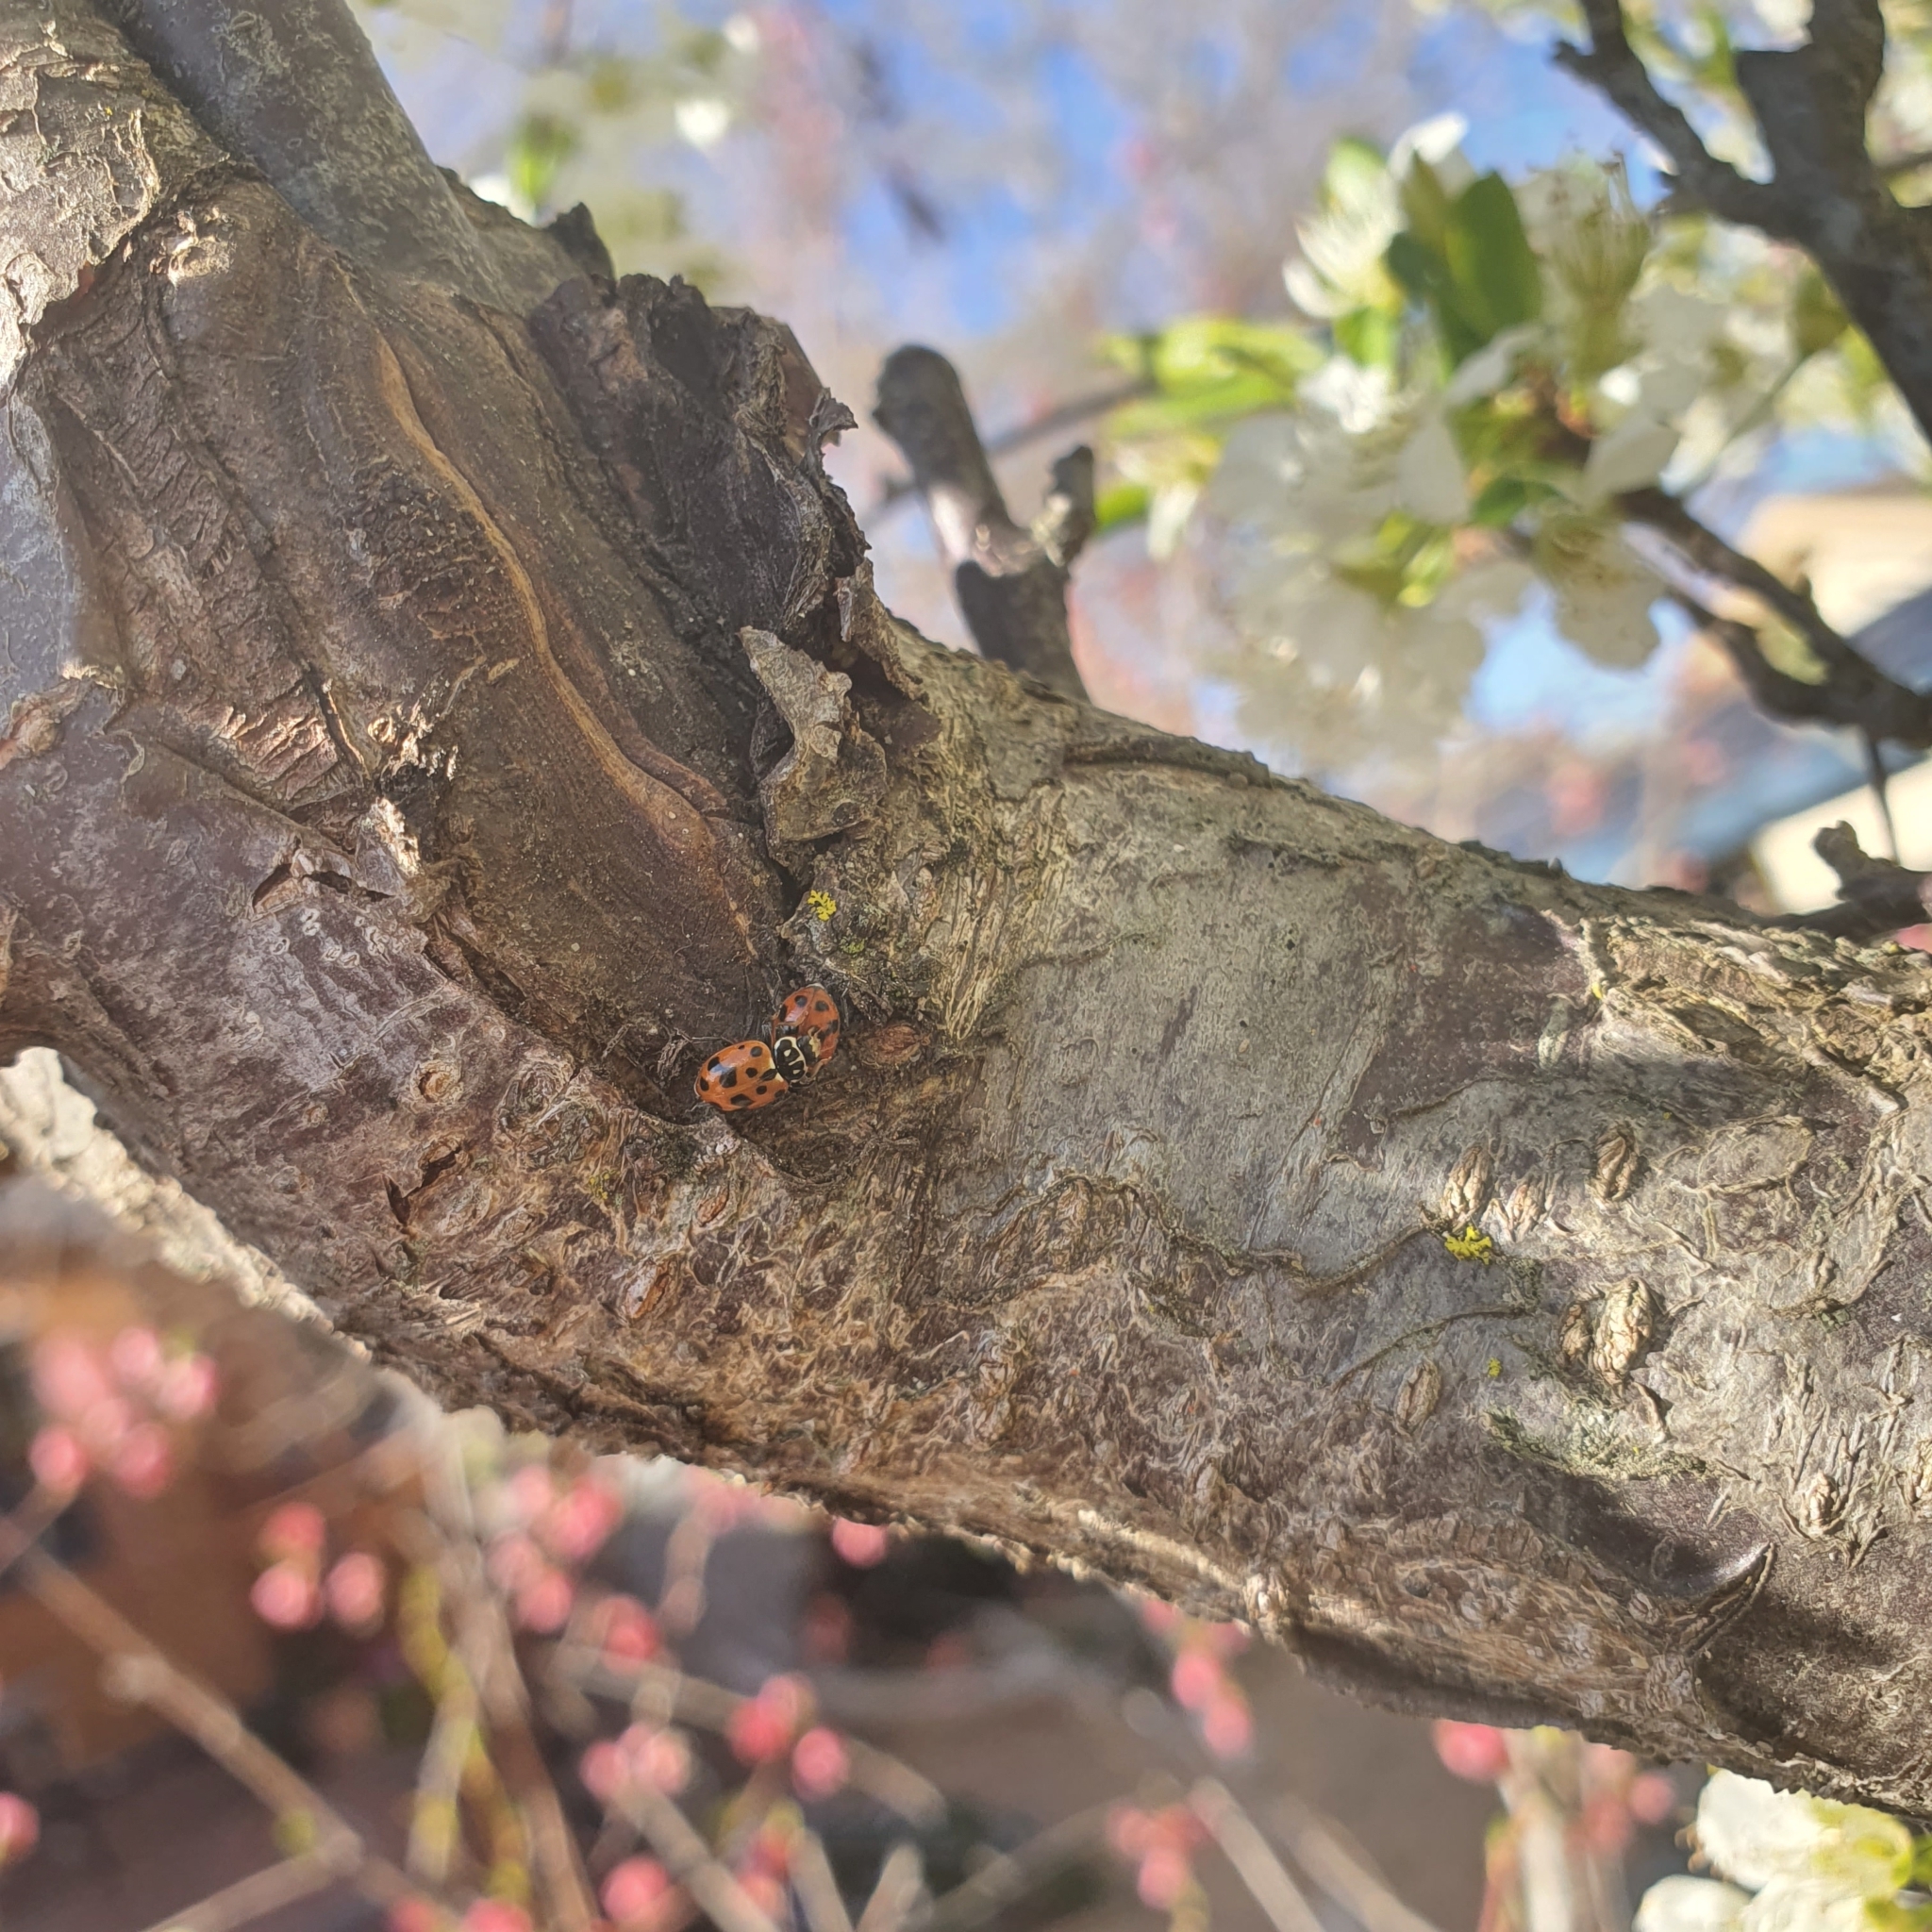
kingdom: Animalia
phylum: Arthropoda
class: Insecta
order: Coleoptera
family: Coccinellidae
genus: Hippodamia
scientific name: Hippodamia variegata
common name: Ladybird beetle
